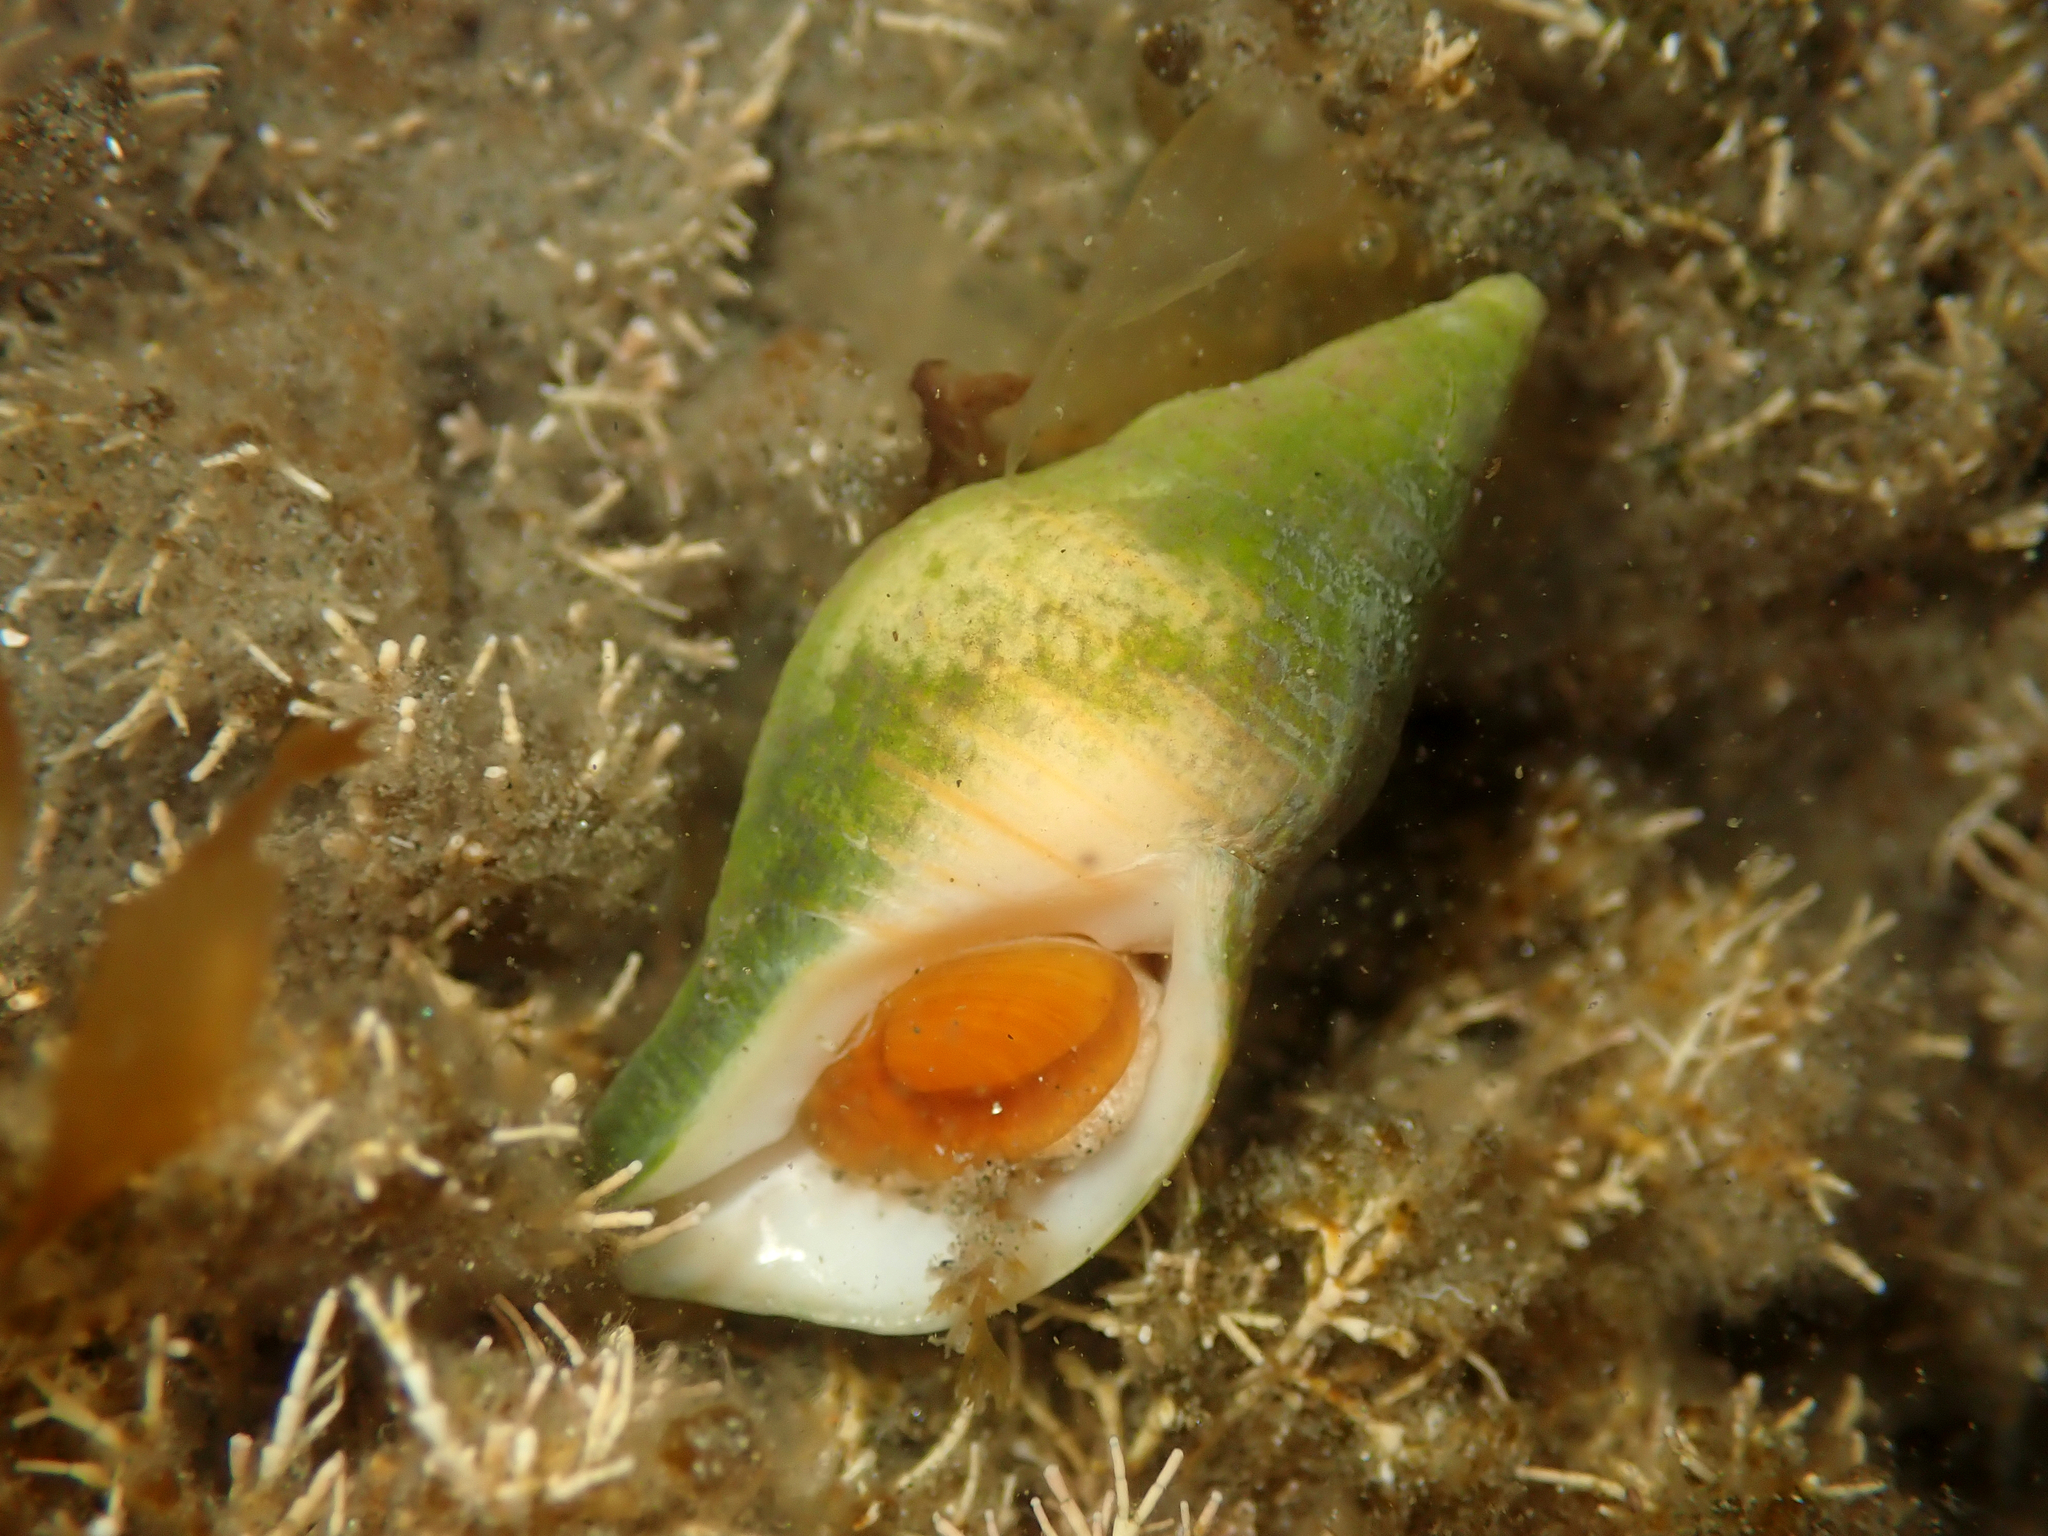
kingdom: Animalia
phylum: Mollusca
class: Gastropoda
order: Neogastropoda
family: Tudiclidae
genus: Buccinulum
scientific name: Buccinulum littorinoides
